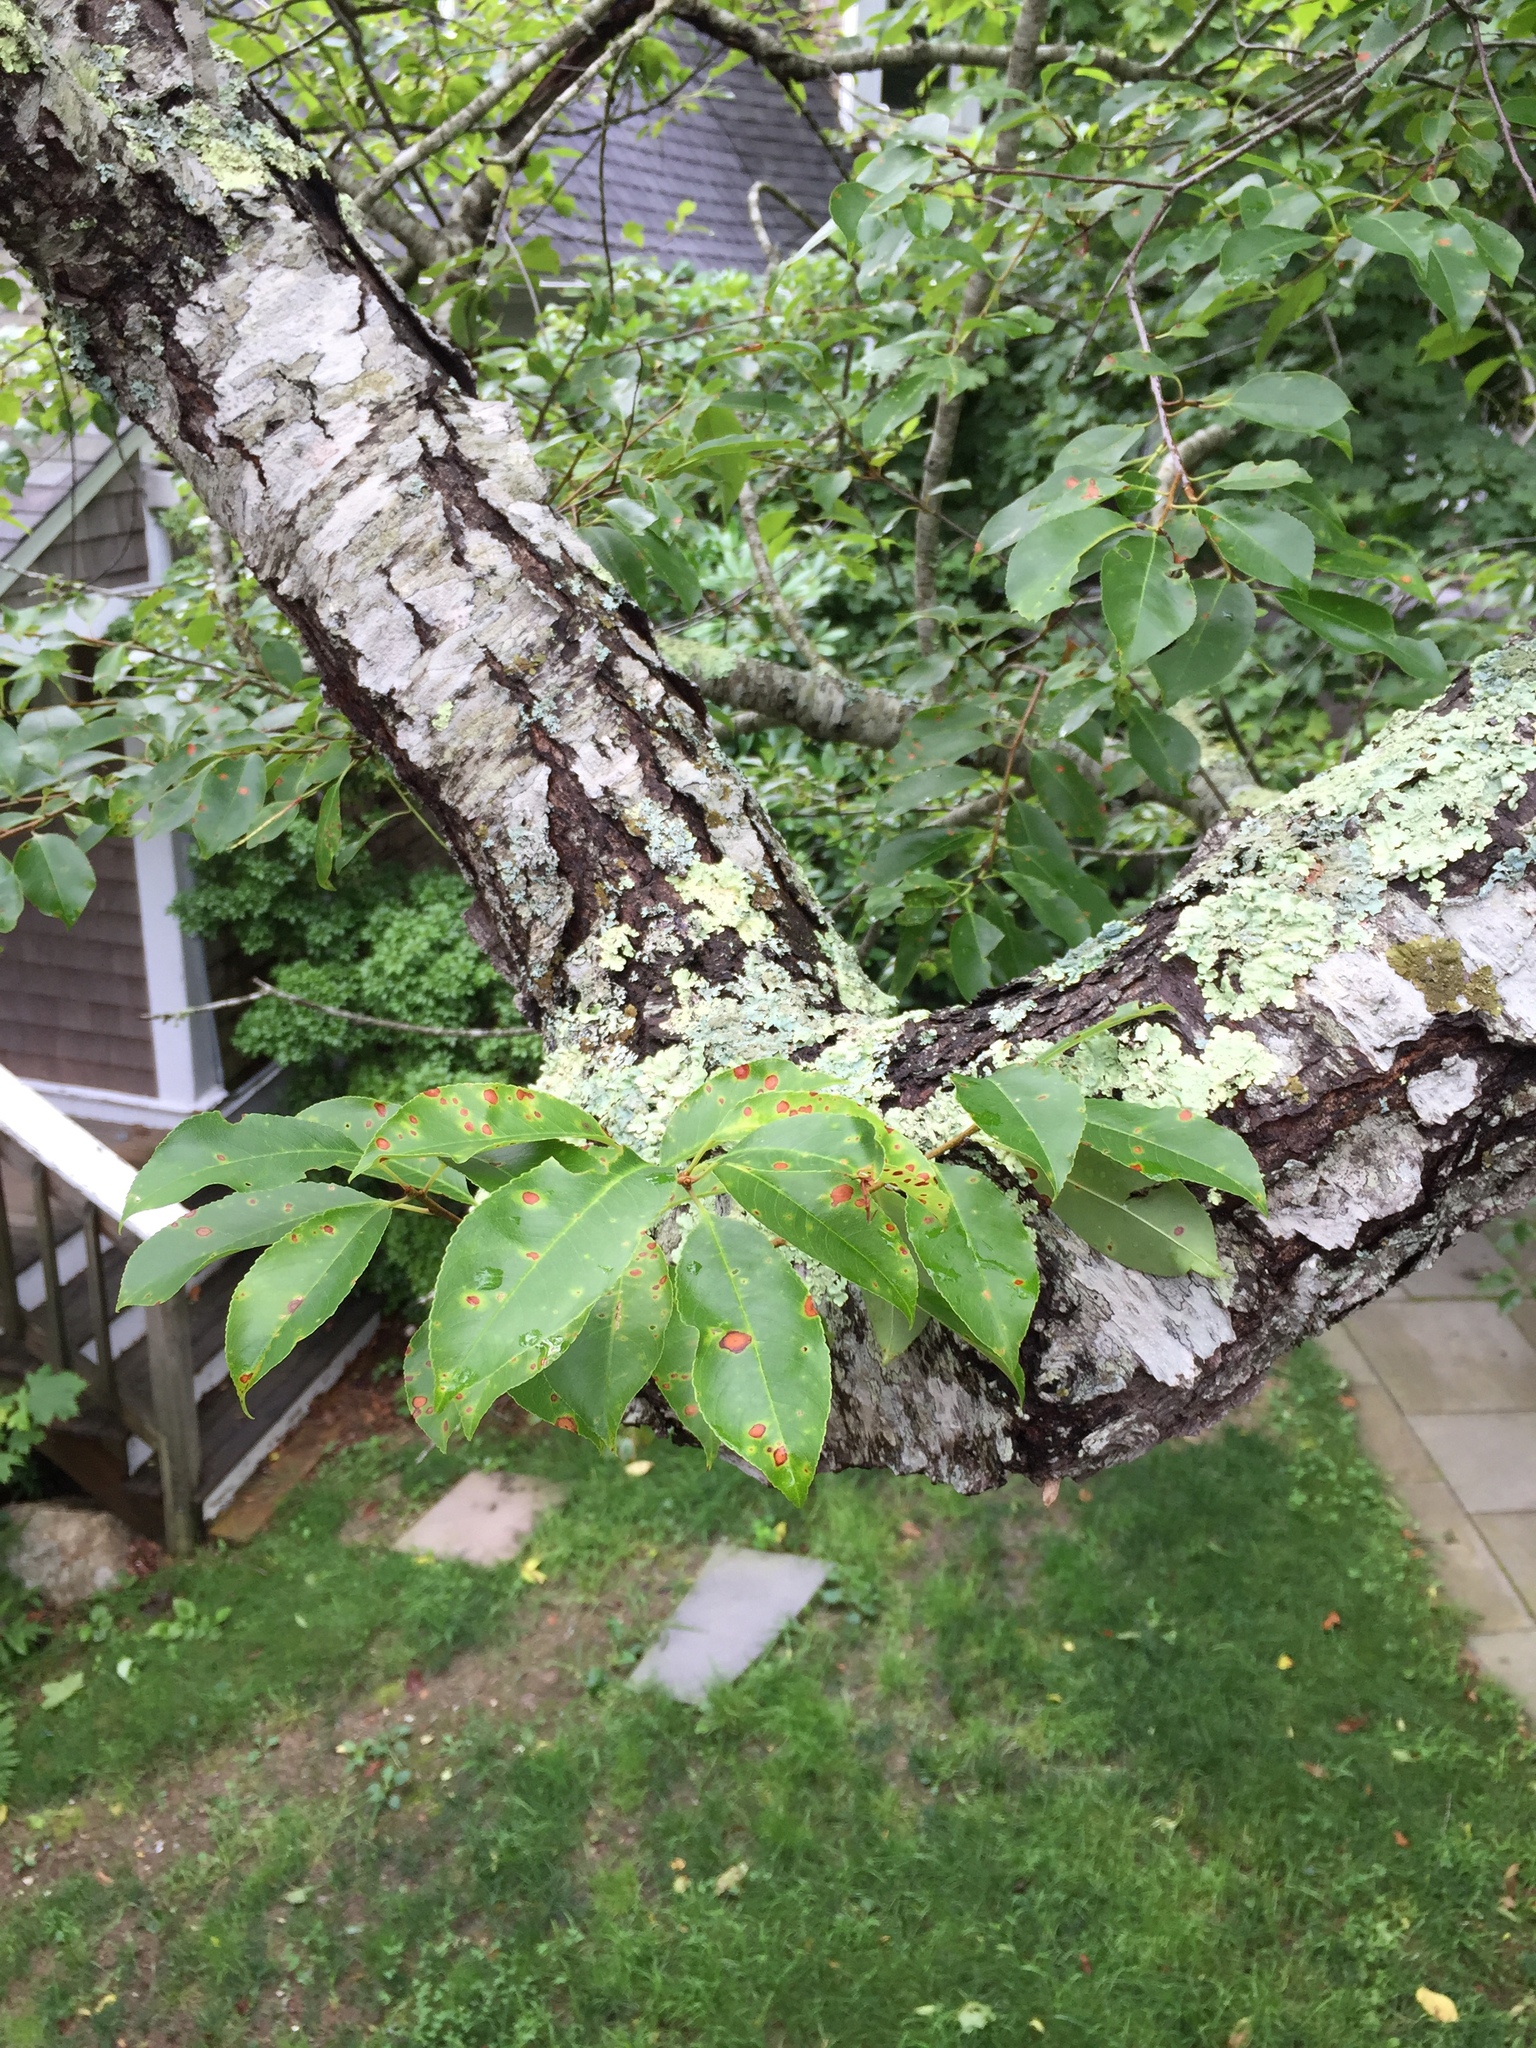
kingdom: Plantae
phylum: Tracheophyta
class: Magnoliopsida
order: Rosales
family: Rosaceae
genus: Prunus
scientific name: Prunus serotina
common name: Black cherry
